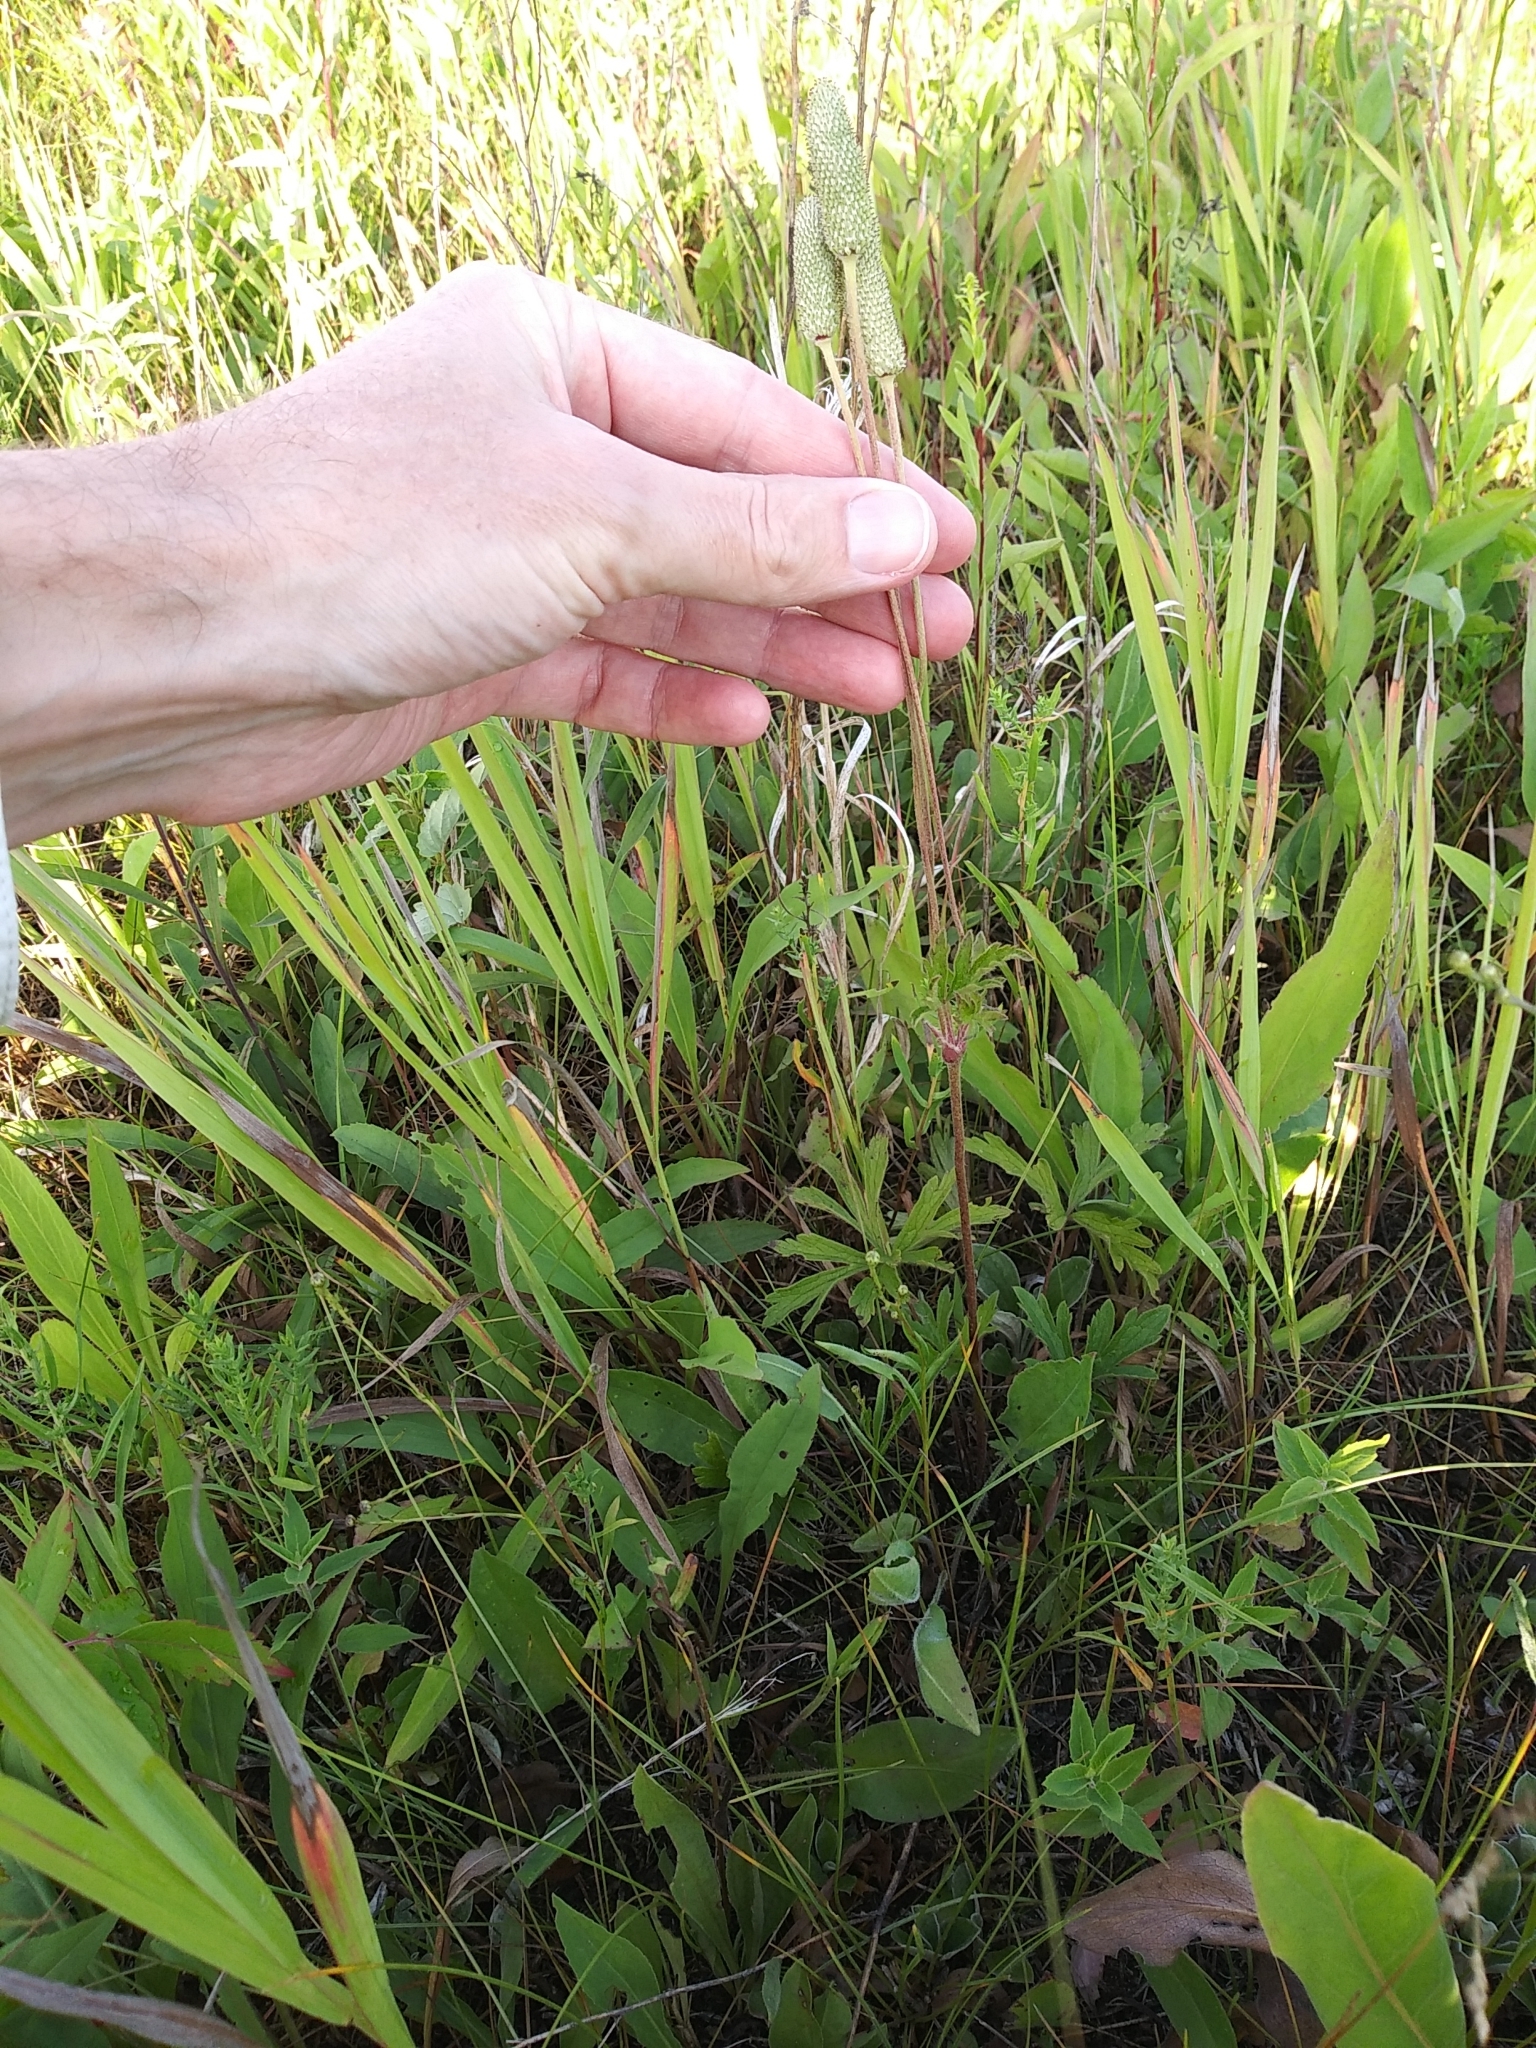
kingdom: Plantae
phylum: Tracheophyta
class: Magnoliopsida
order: Ranunculales
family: Ranunculaceae
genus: Anemone
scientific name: Anemone cylindrica
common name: Candle anemone
